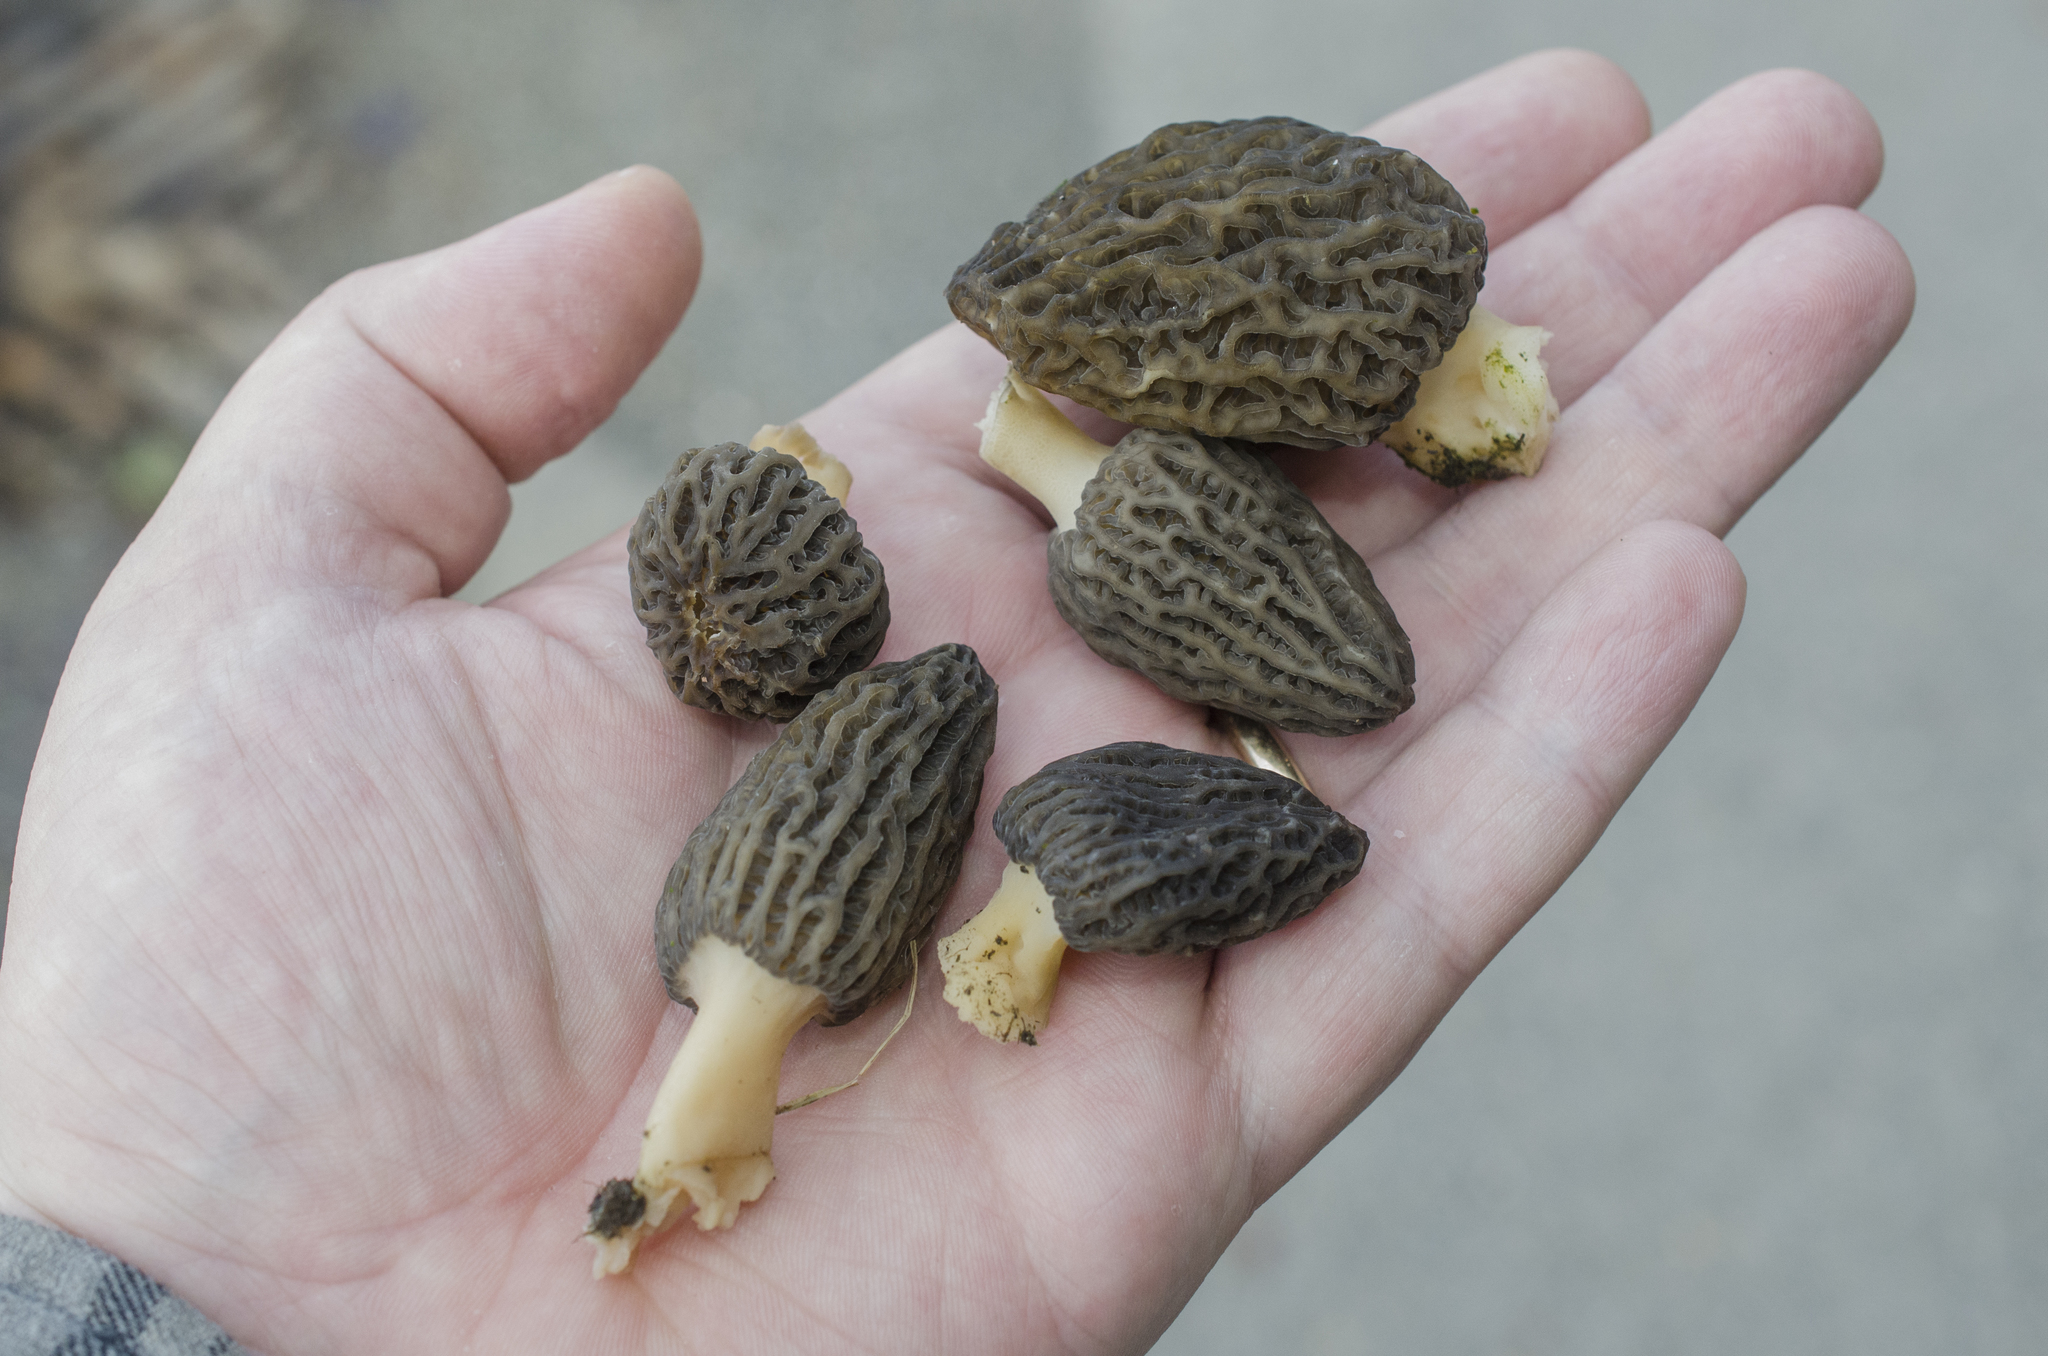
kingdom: Fungi
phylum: Ascomycota
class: Pezizomycetes
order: Pezizales
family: Morchellaceae
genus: Morchella
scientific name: Morchella importuna
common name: Landscaping black morel
